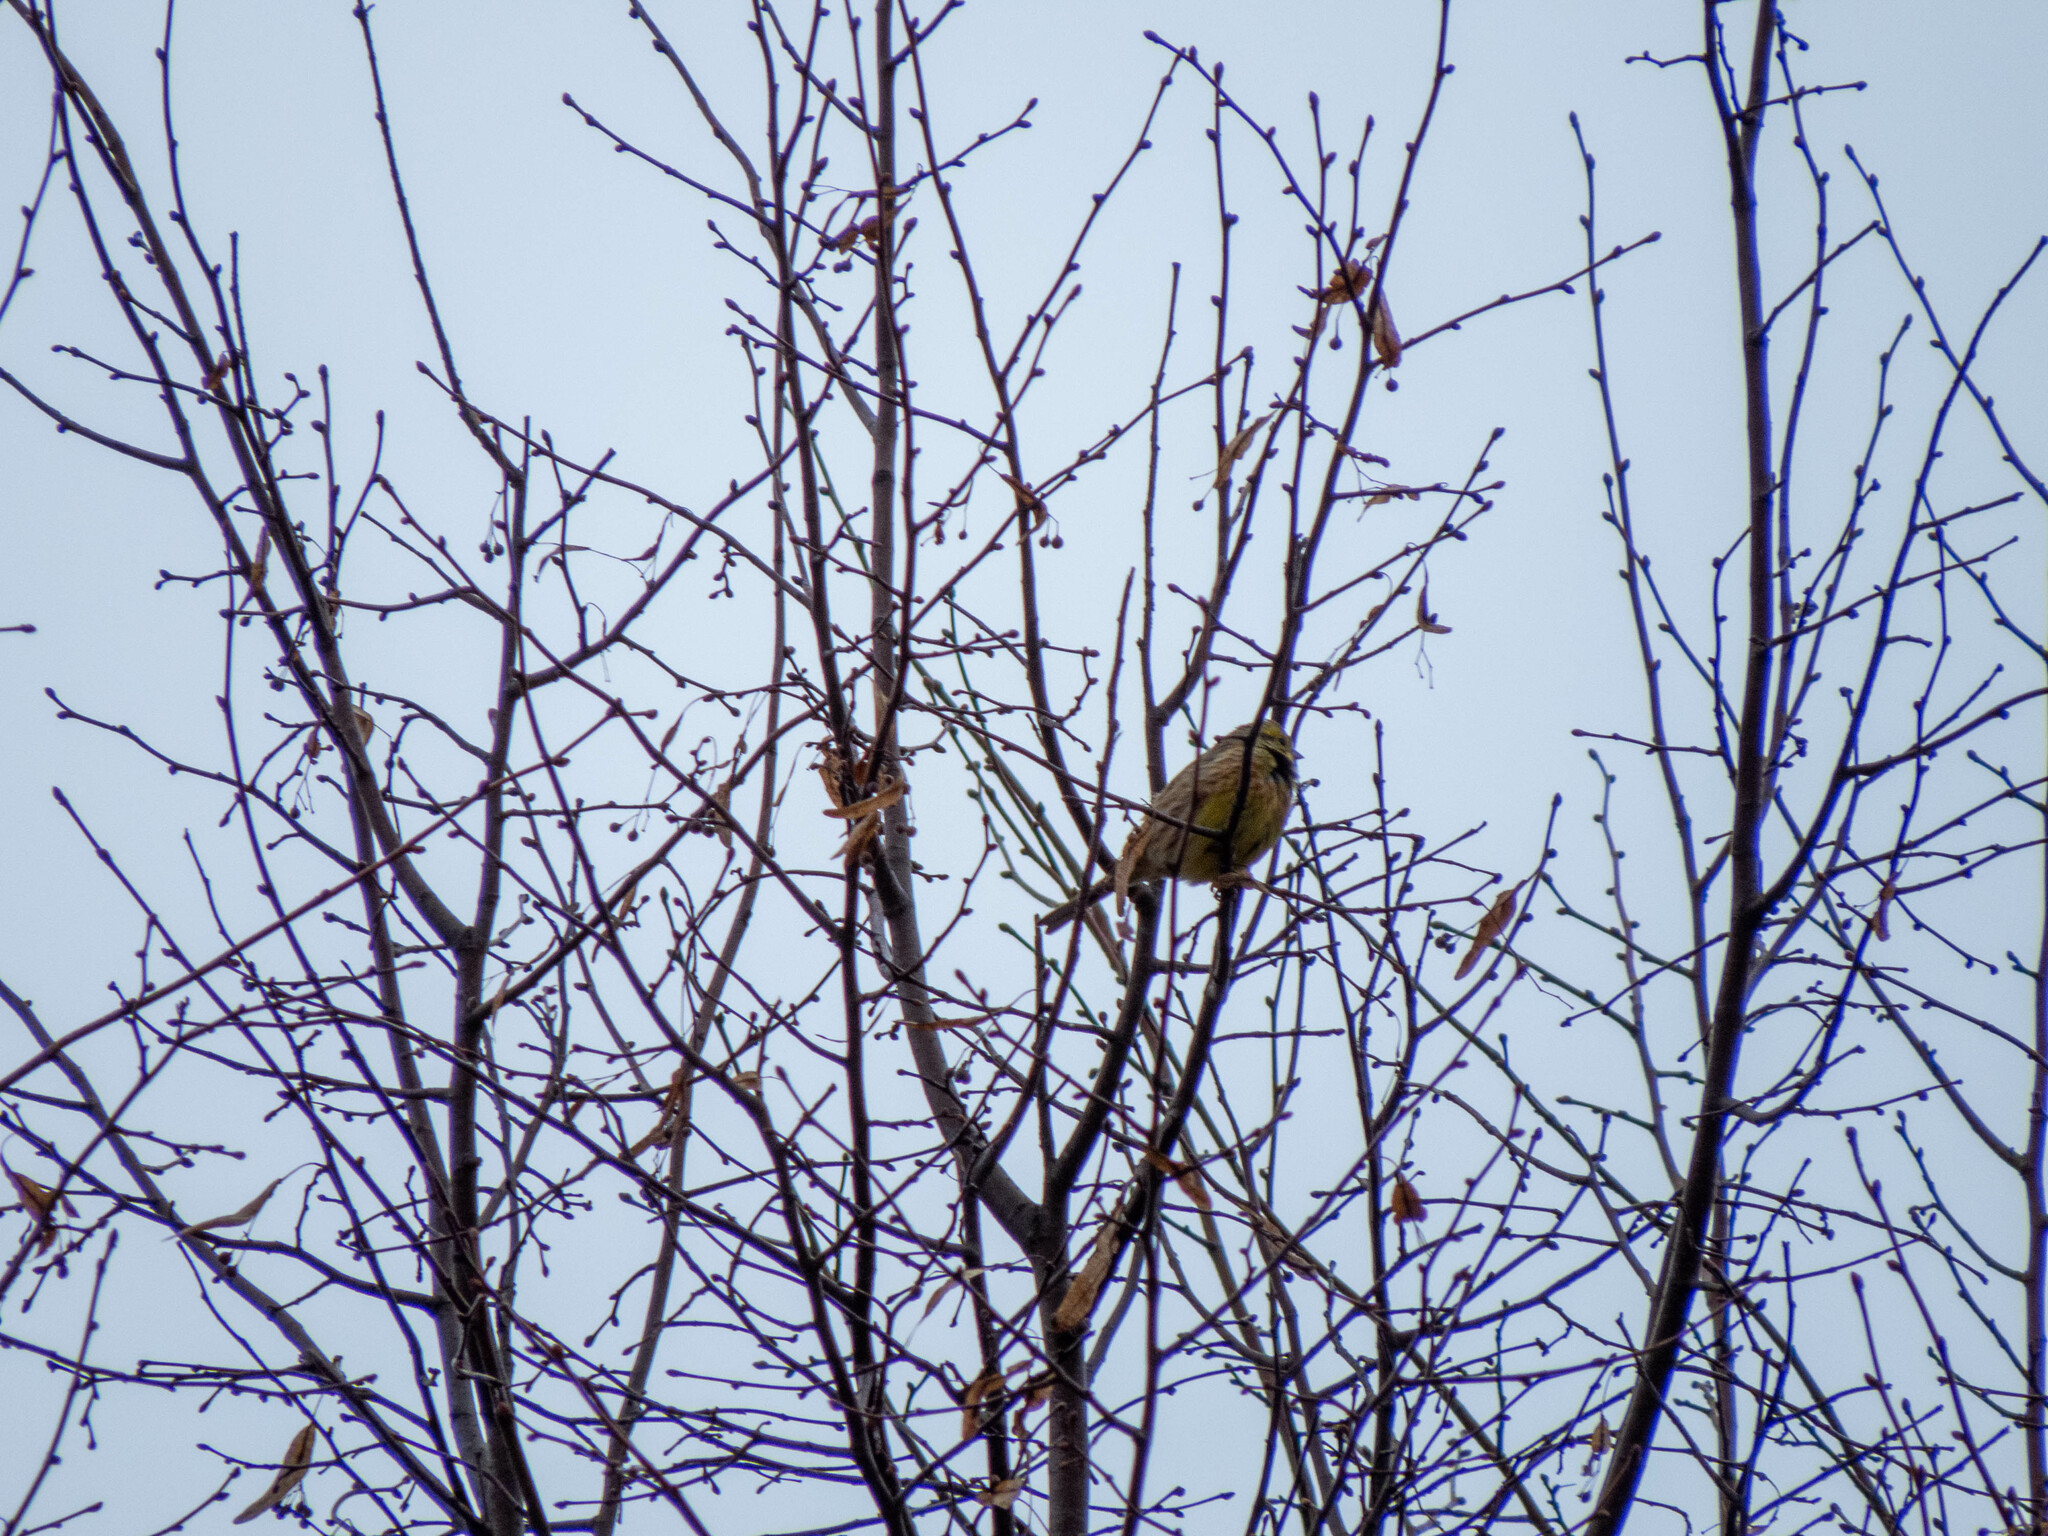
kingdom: Animalia
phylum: Chordata
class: Aves
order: Passeriformes
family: Emberizidae
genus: Emberiza
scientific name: Emberiza citrinella
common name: Yellowhammer
